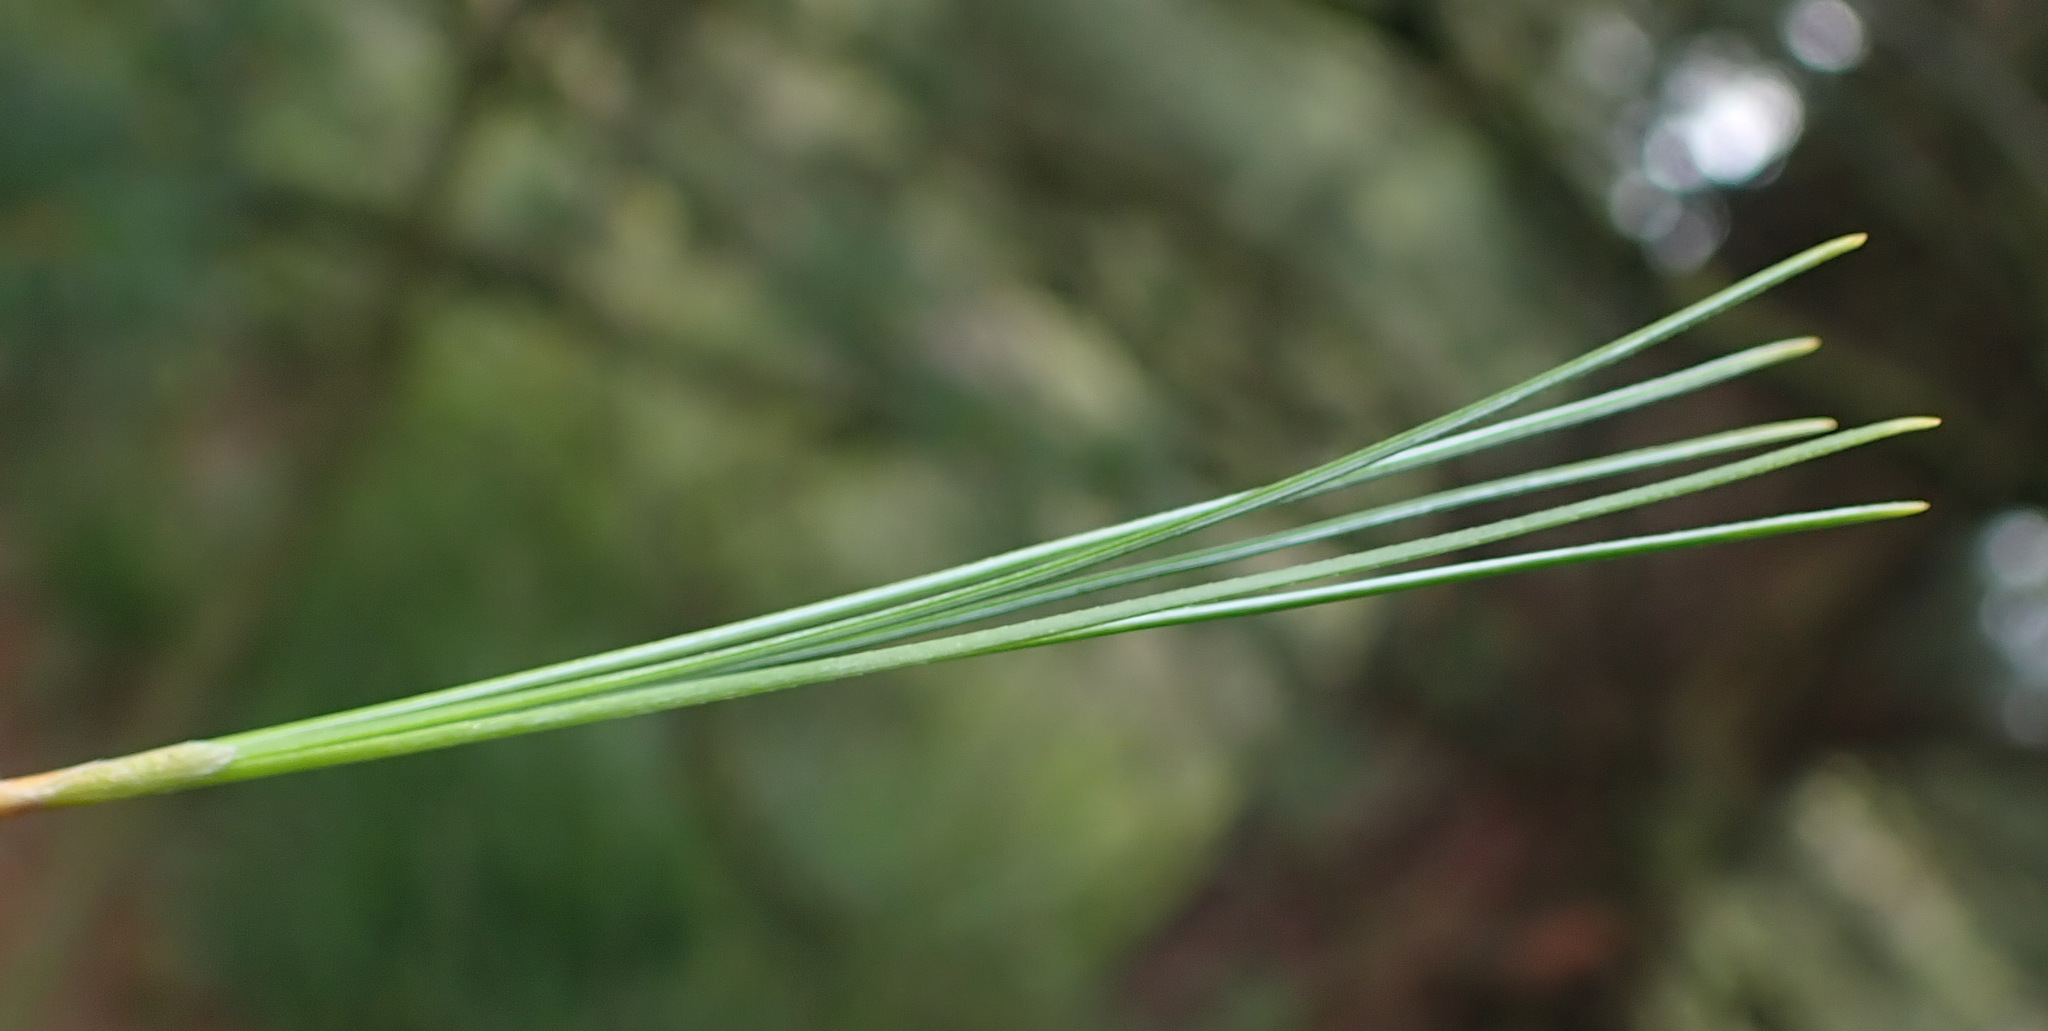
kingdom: Plantae
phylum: Tracheophyta
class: Pinopsida
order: Pinales
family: Pinaceae
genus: Pinus
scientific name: Pinus strobus
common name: Weymouth pine
